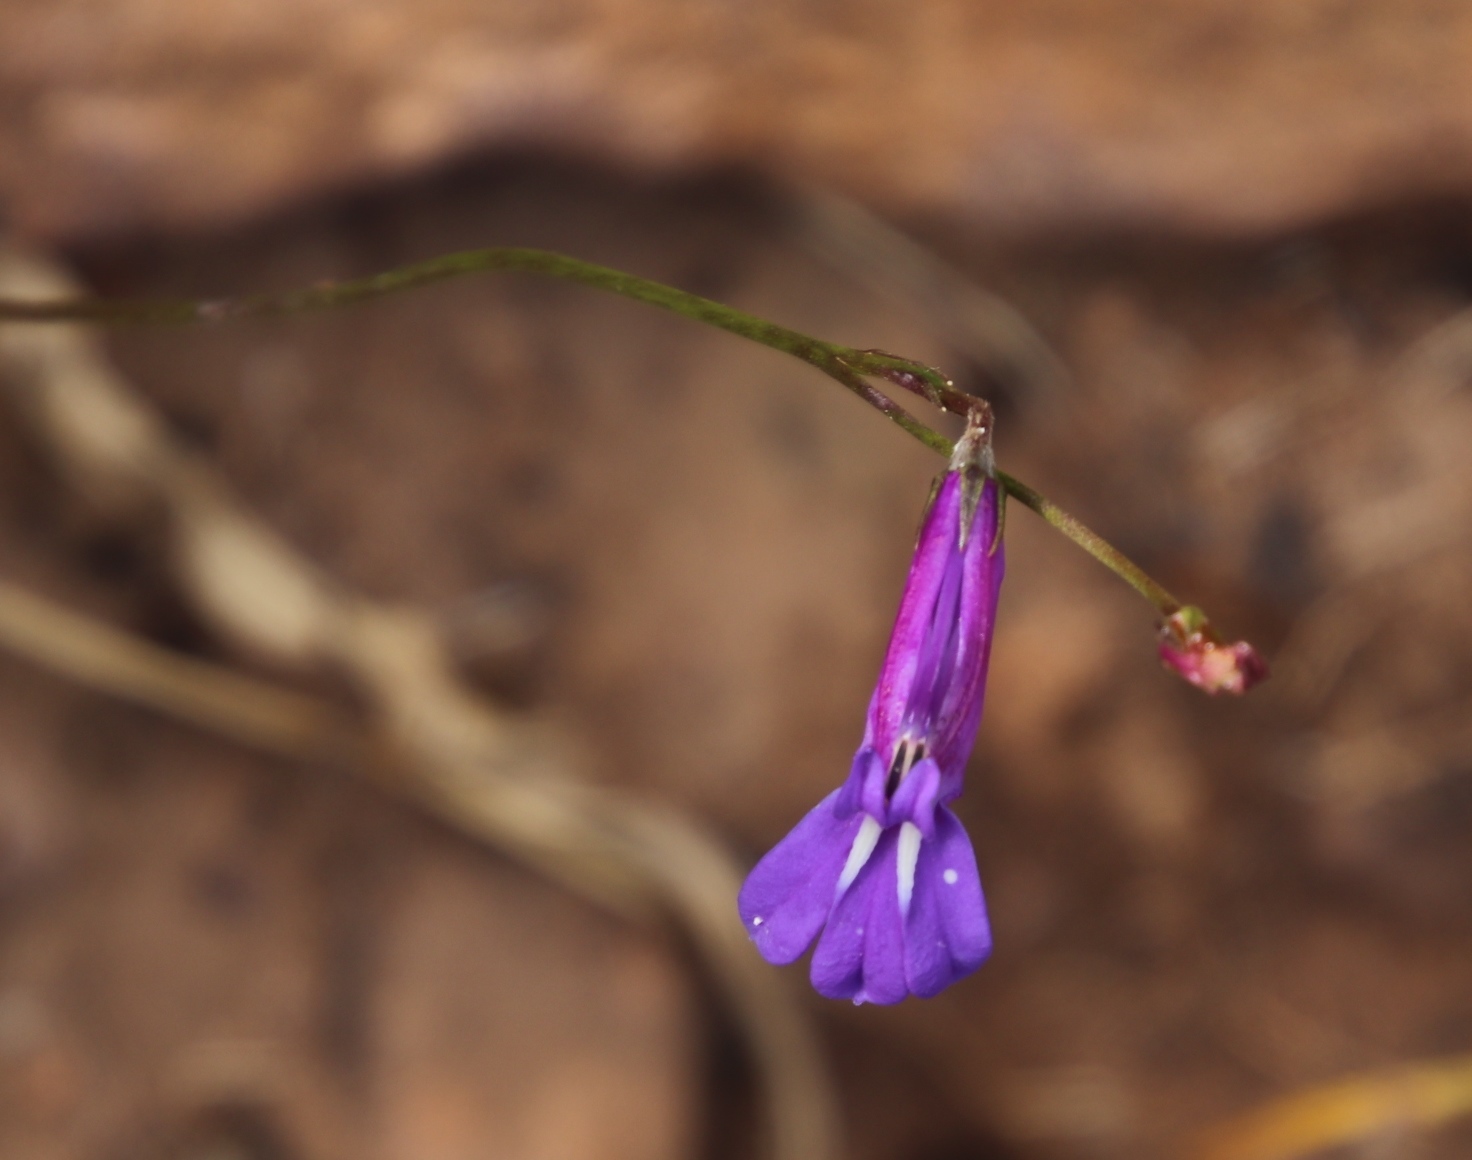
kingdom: Plantae
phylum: Tracheophyta
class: Magnoliopsida
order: Asterales
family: Campanulaceae
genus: Lobelia
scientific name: Lobelia coronopifolia
